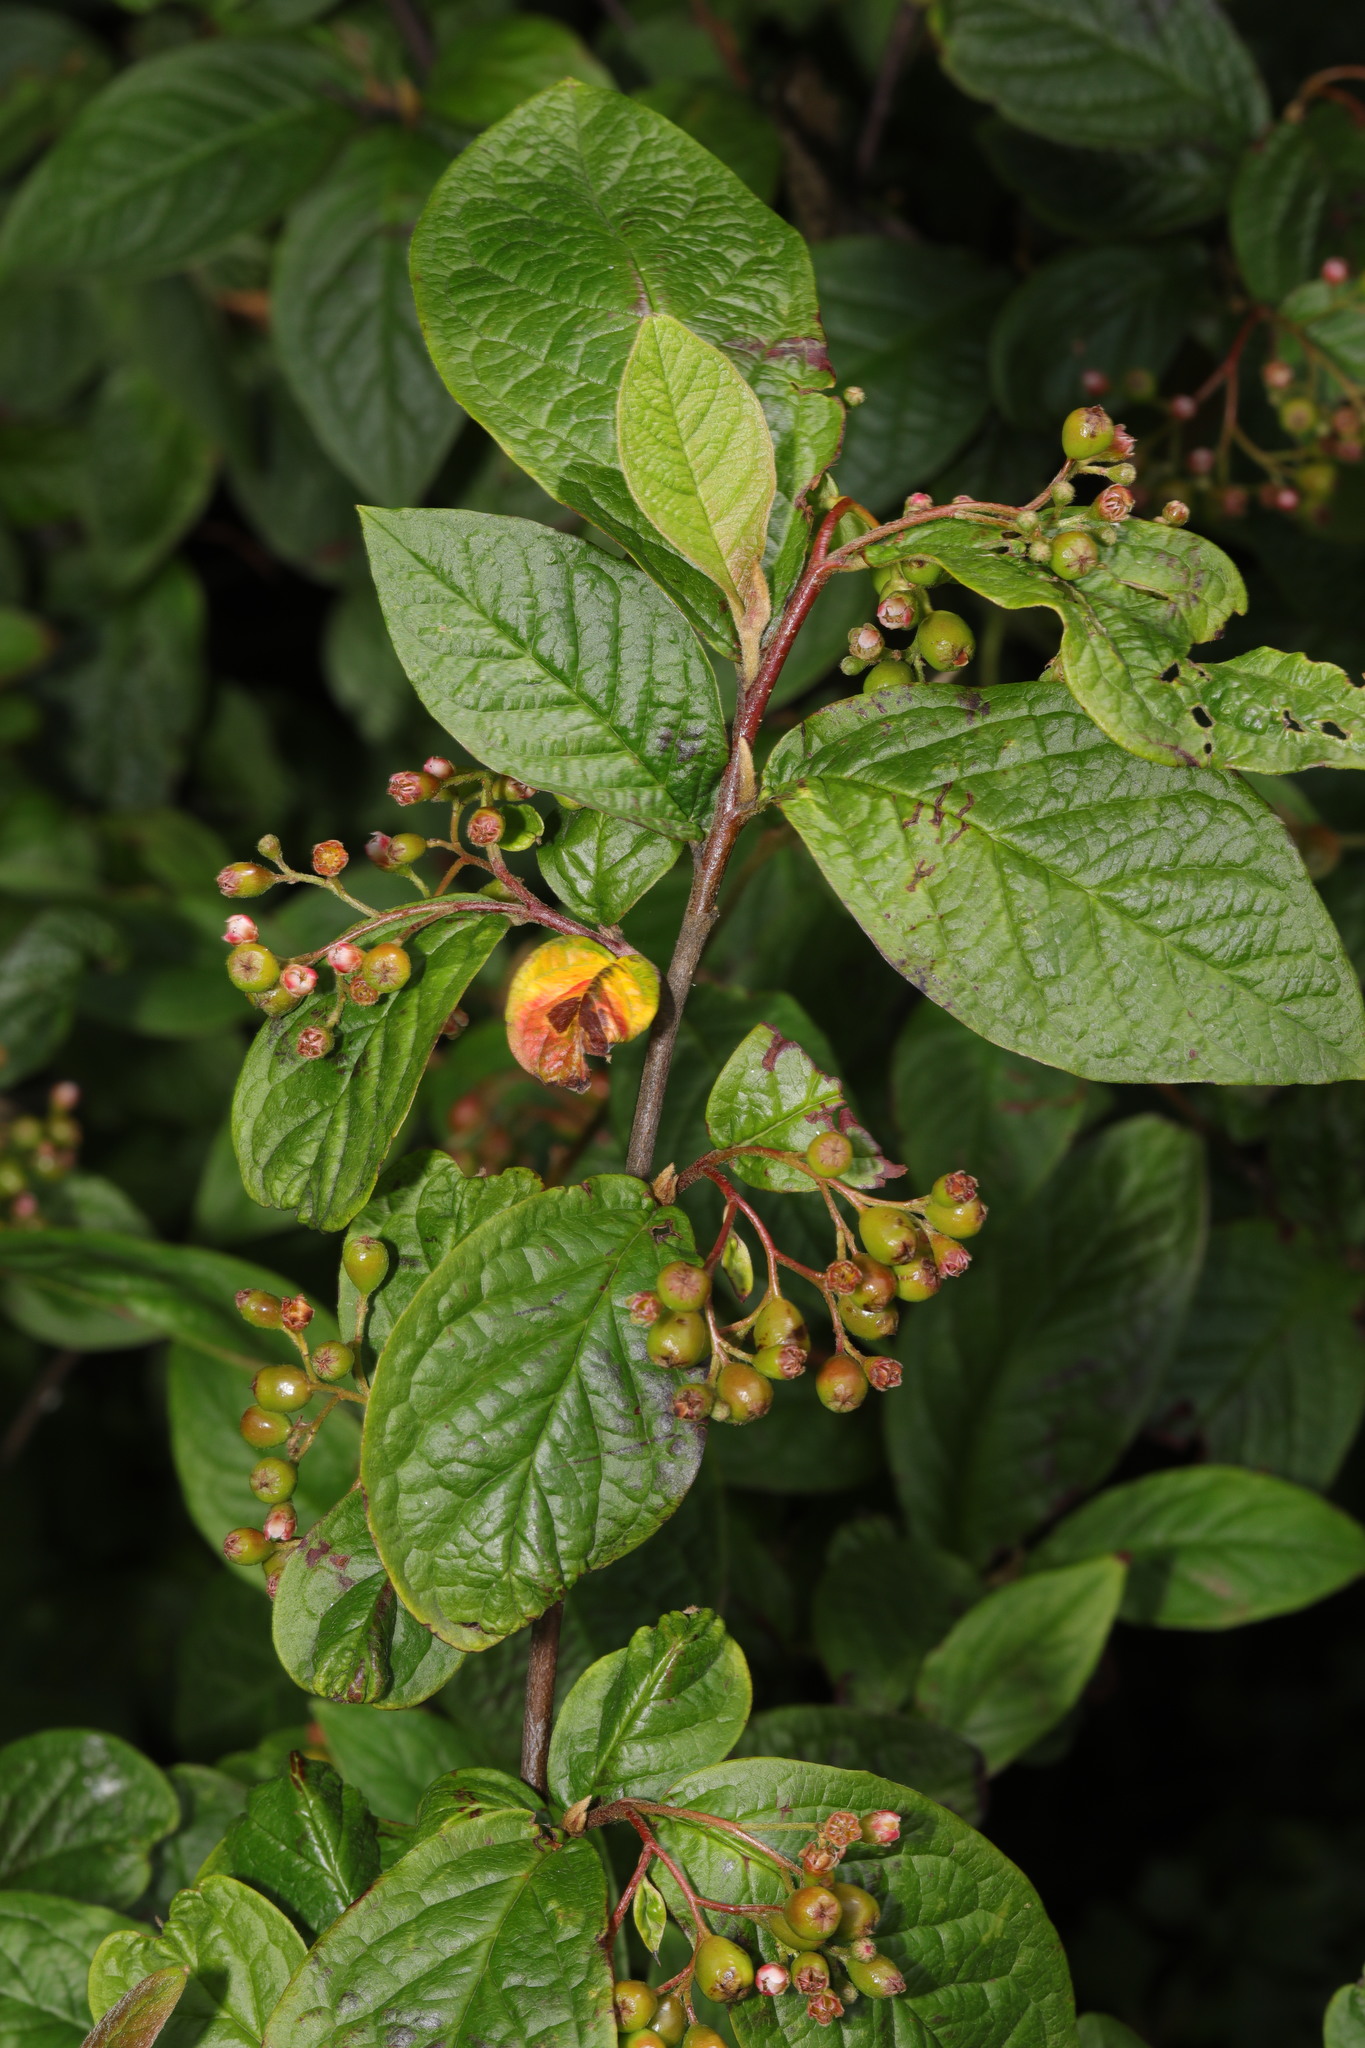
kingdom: Plantae
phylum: Tracheophyta
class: Magnoliopsida
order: Rosales
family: Rosaceae
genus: Cotoneaster
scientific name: Cotoneaster bullatus
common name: Hollyberry cotoneaster
